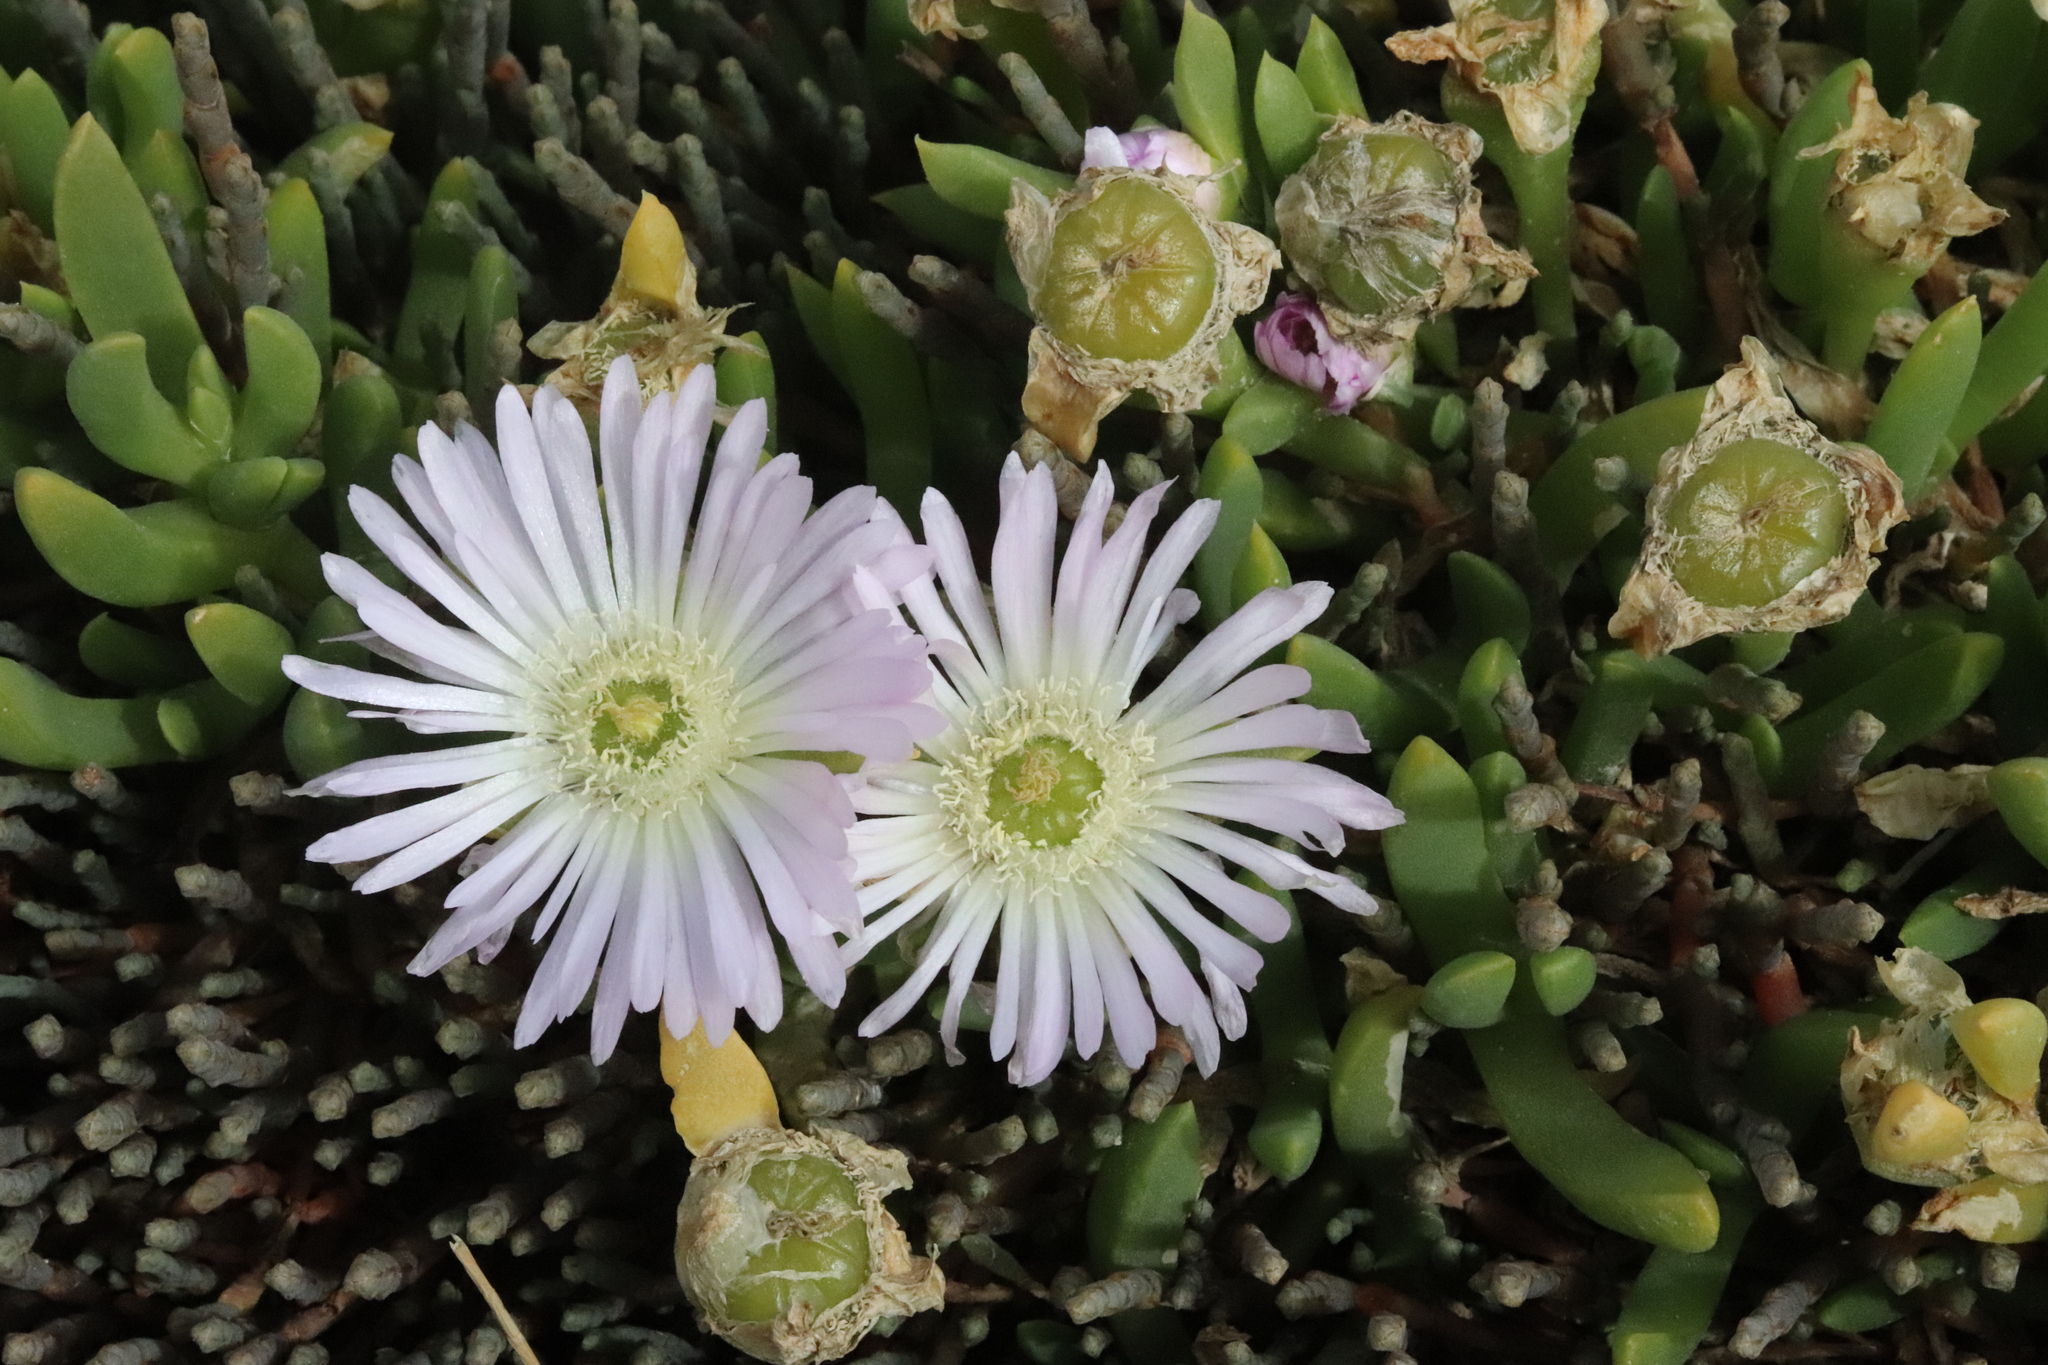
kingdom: Plantae
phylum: Tracheophyta
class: Magnoliopsida
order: Caryophyllales
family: Aizoaceae
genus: Disphyma
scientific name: Disphyma australe
